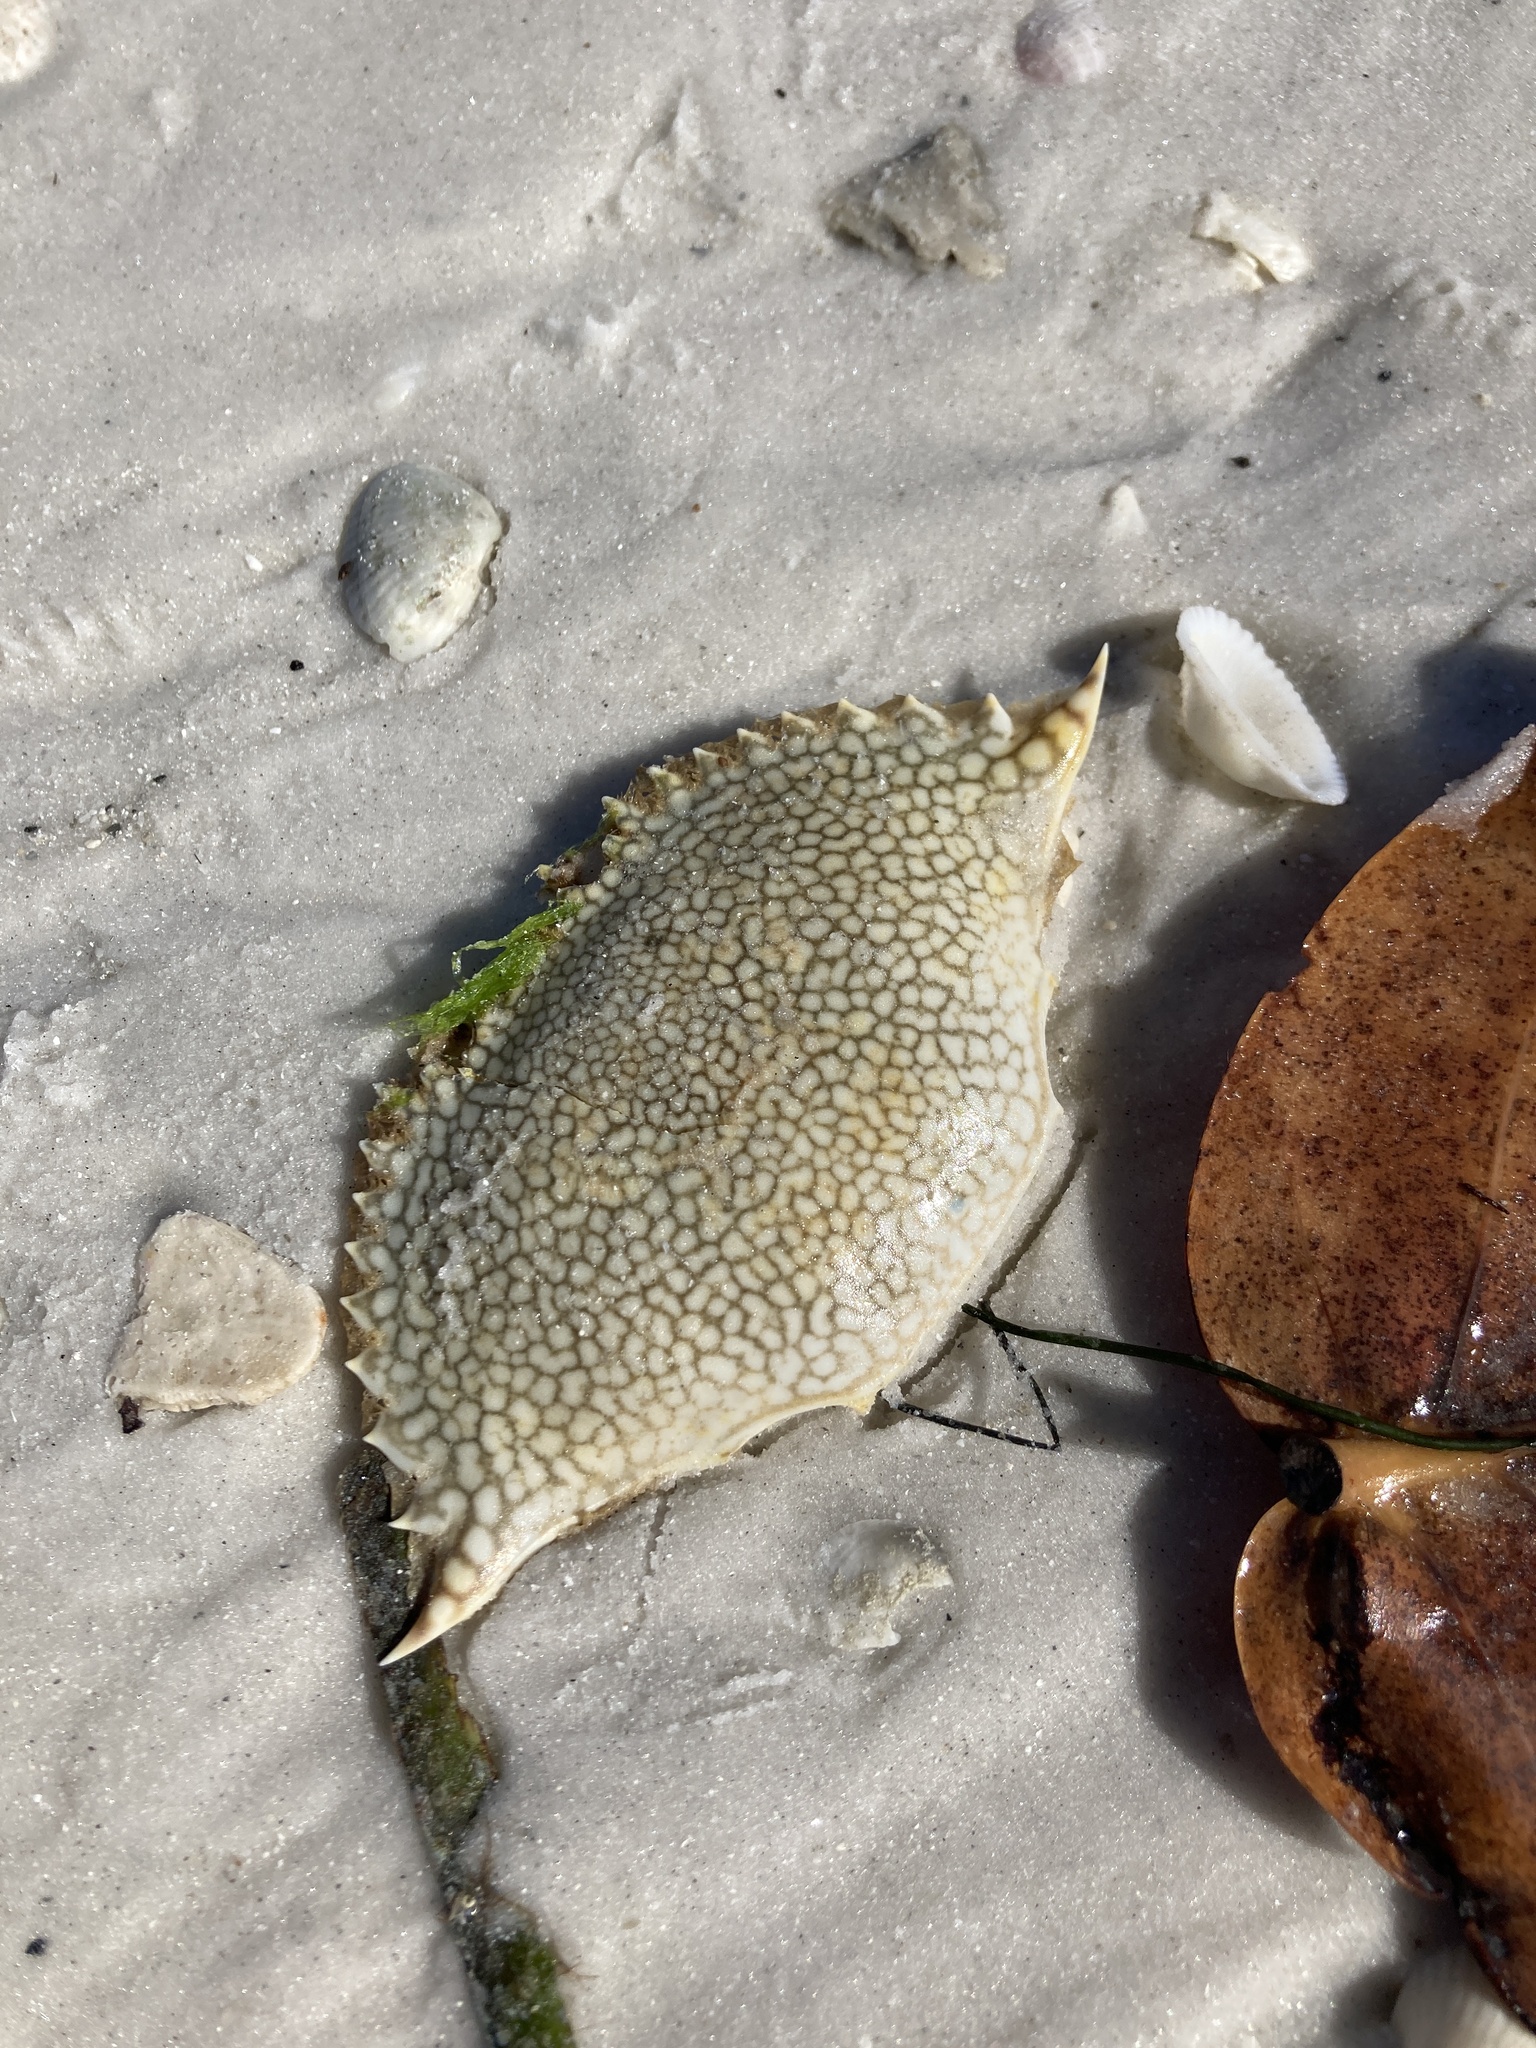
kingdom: Animalia
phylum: Arthropoda
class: Malacostraca
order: Decapoda
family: Portunidae
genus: Arenaeus
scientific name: Arenaeus cribrarius
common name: Speckled crab
